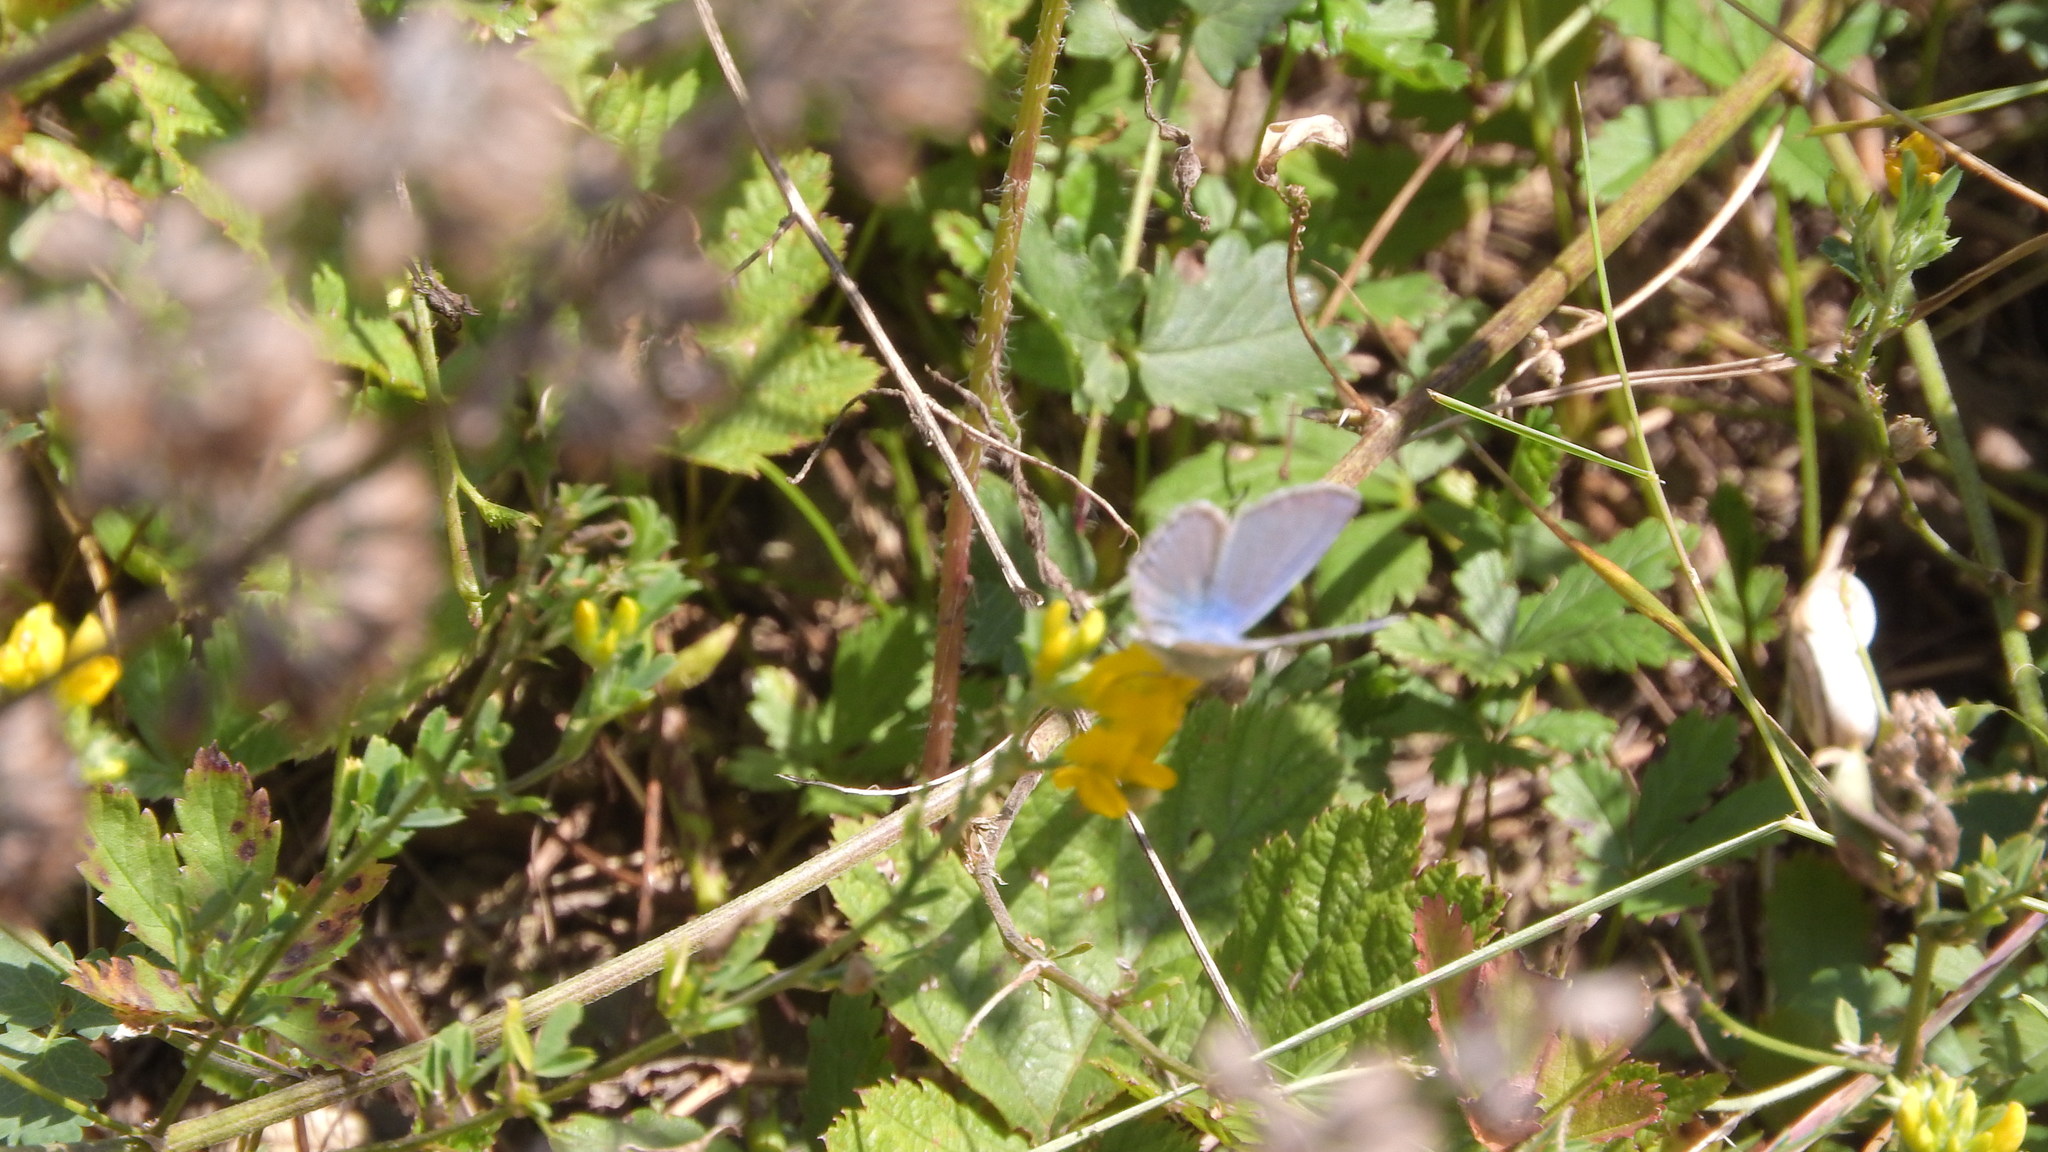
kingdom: Animalia
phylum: Arthropoda
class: Insecta
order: Lepidoptera
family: Lycaenidae
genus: Polyommatus
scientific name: Polyommatus icarus
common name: Common blue
